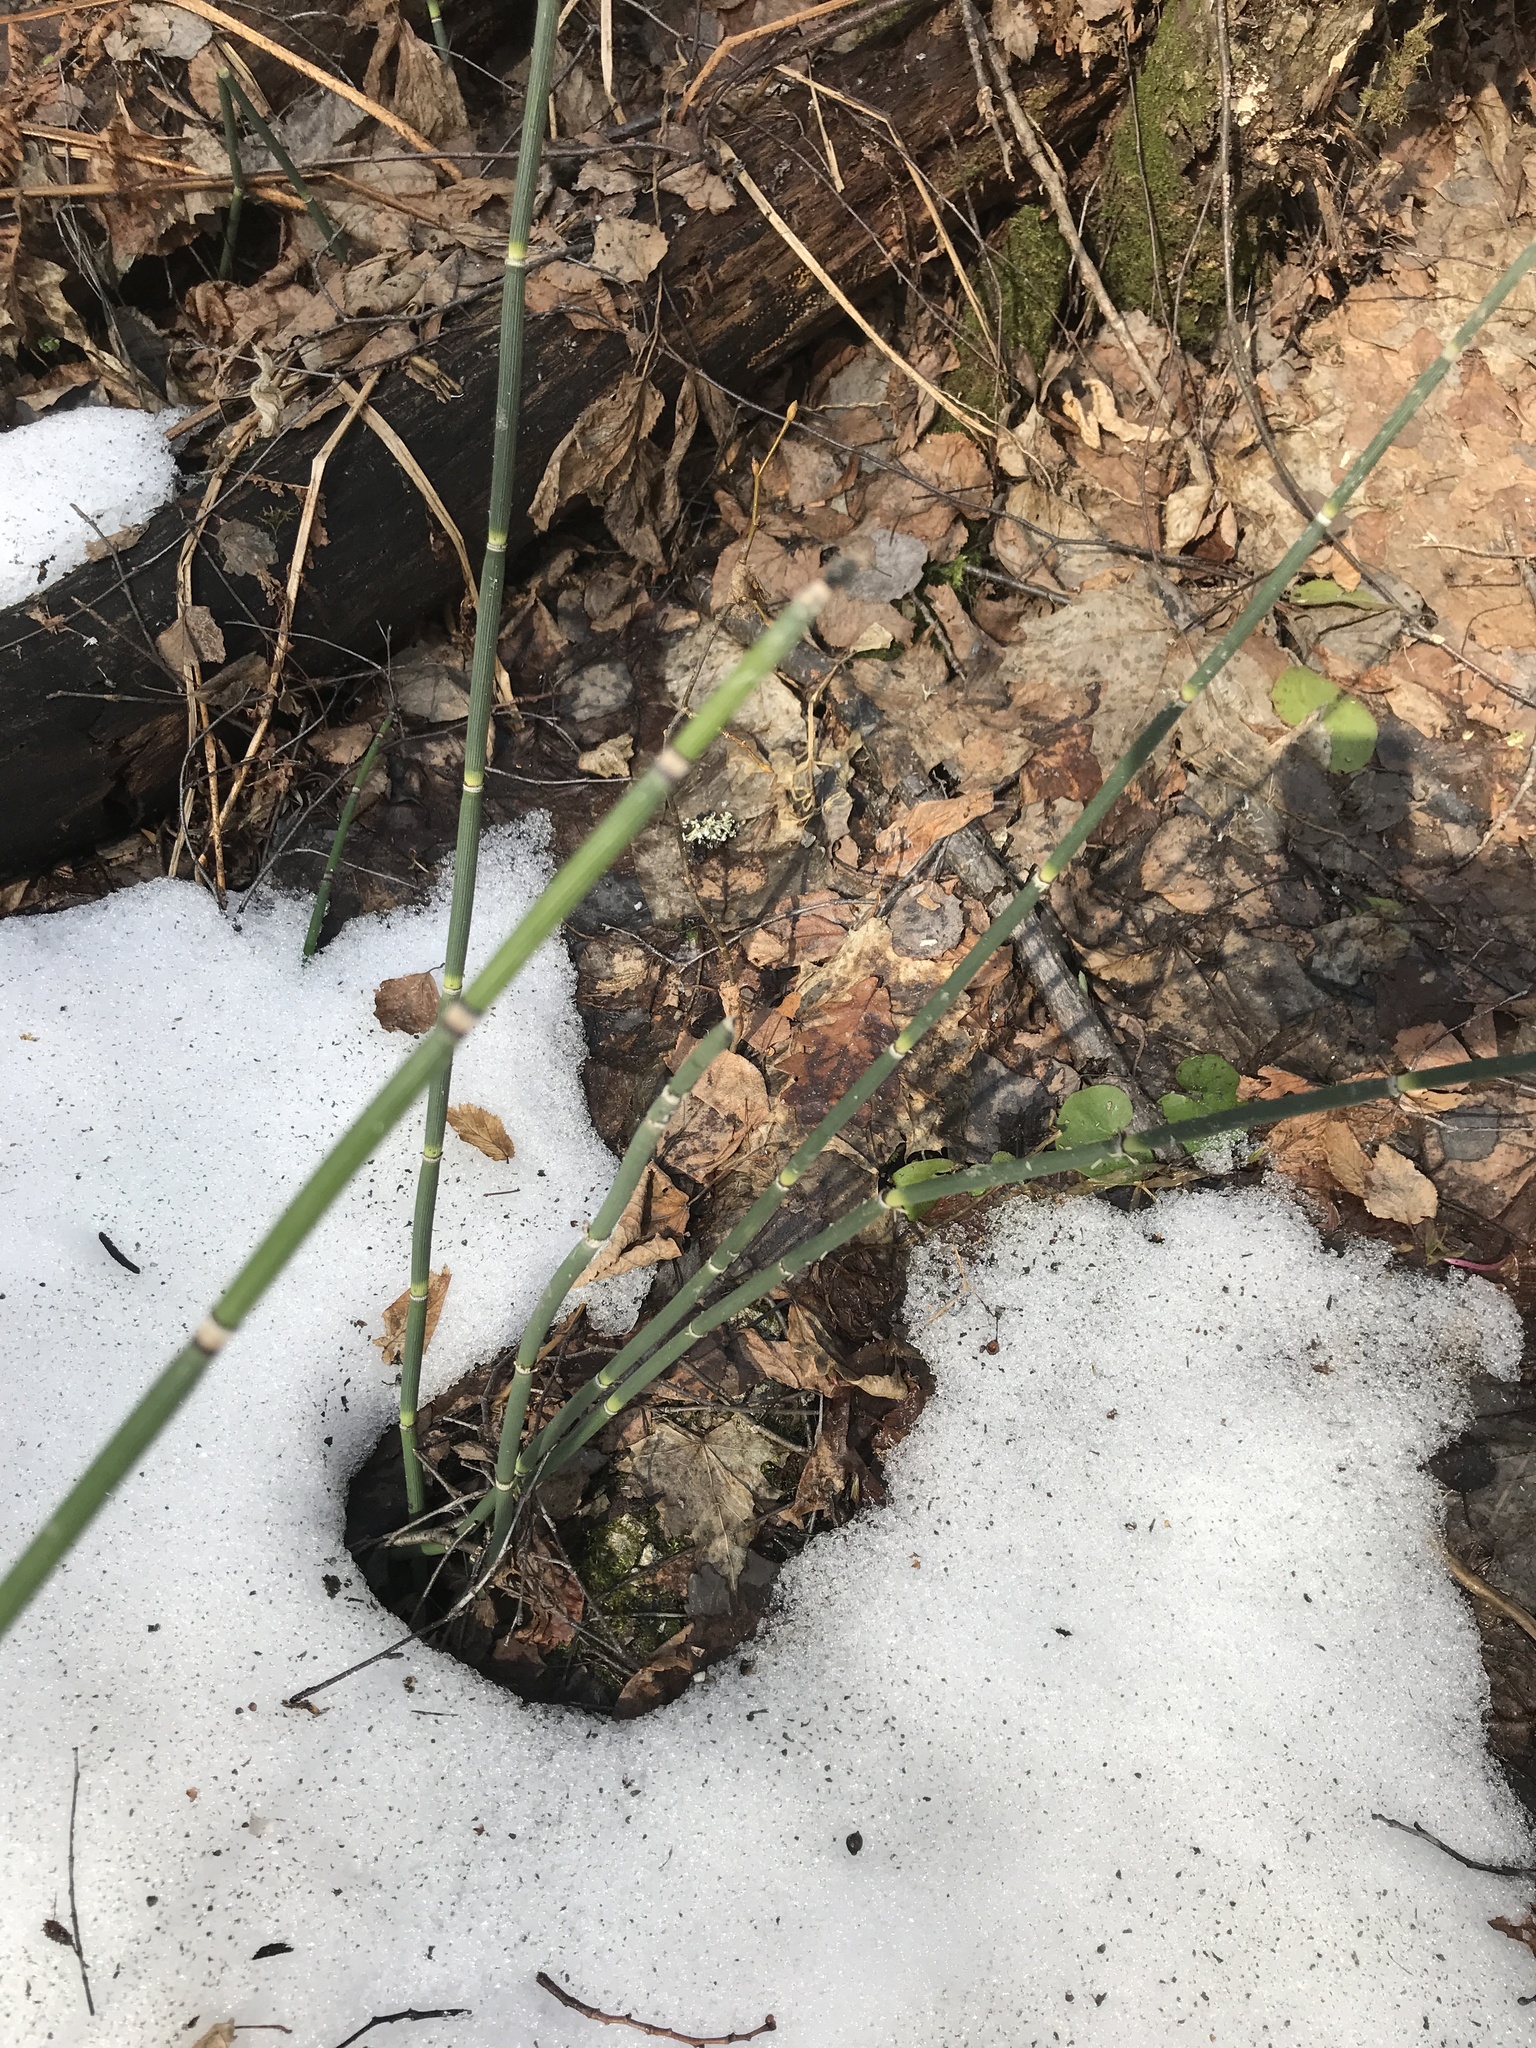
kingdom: Plantae
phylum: Tracheophyta
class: Polypodiopsida
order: Equisetales
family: Equisetaceae
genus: Equisetum
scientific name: Equisetum hyemale
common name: Rough horsetail
